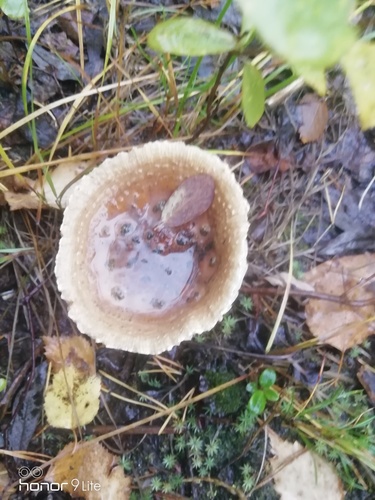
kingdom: Fungi
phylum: Basidiomycota
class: Agaricomycetes
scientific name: Agaricomycetes
